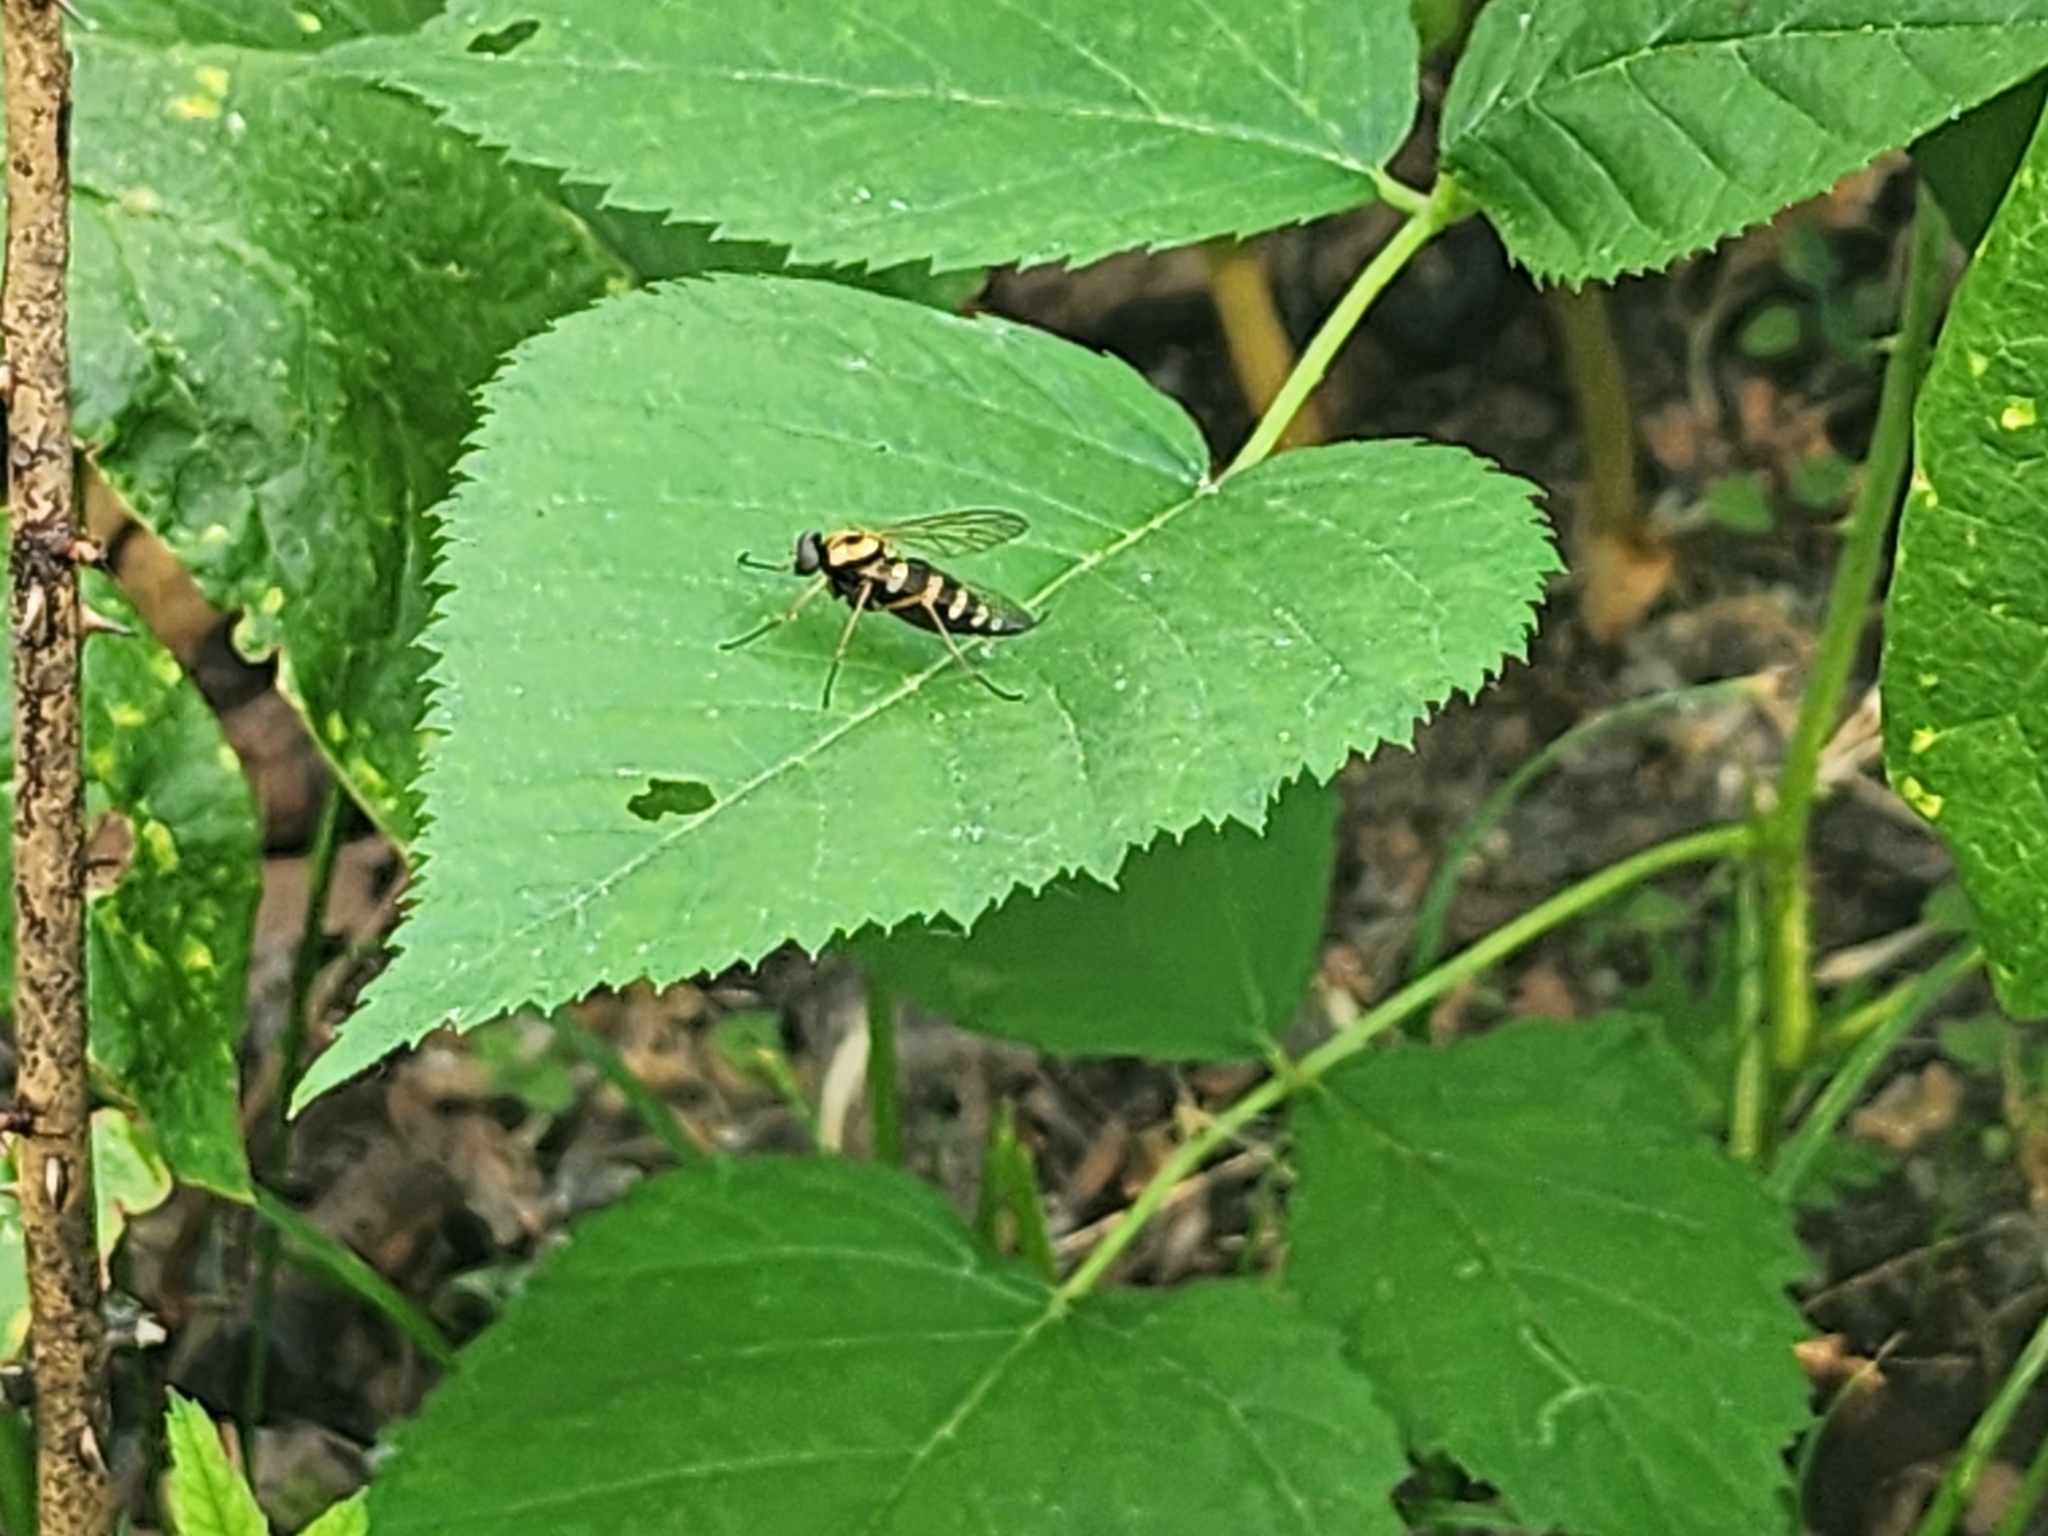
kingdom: Animalia
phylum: Arthropoda
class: Insecta
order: Diptera
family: Rhagionidae
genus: Chrysopilus
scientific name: Chrysopilus ornatus
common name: Ornate snipe fly
